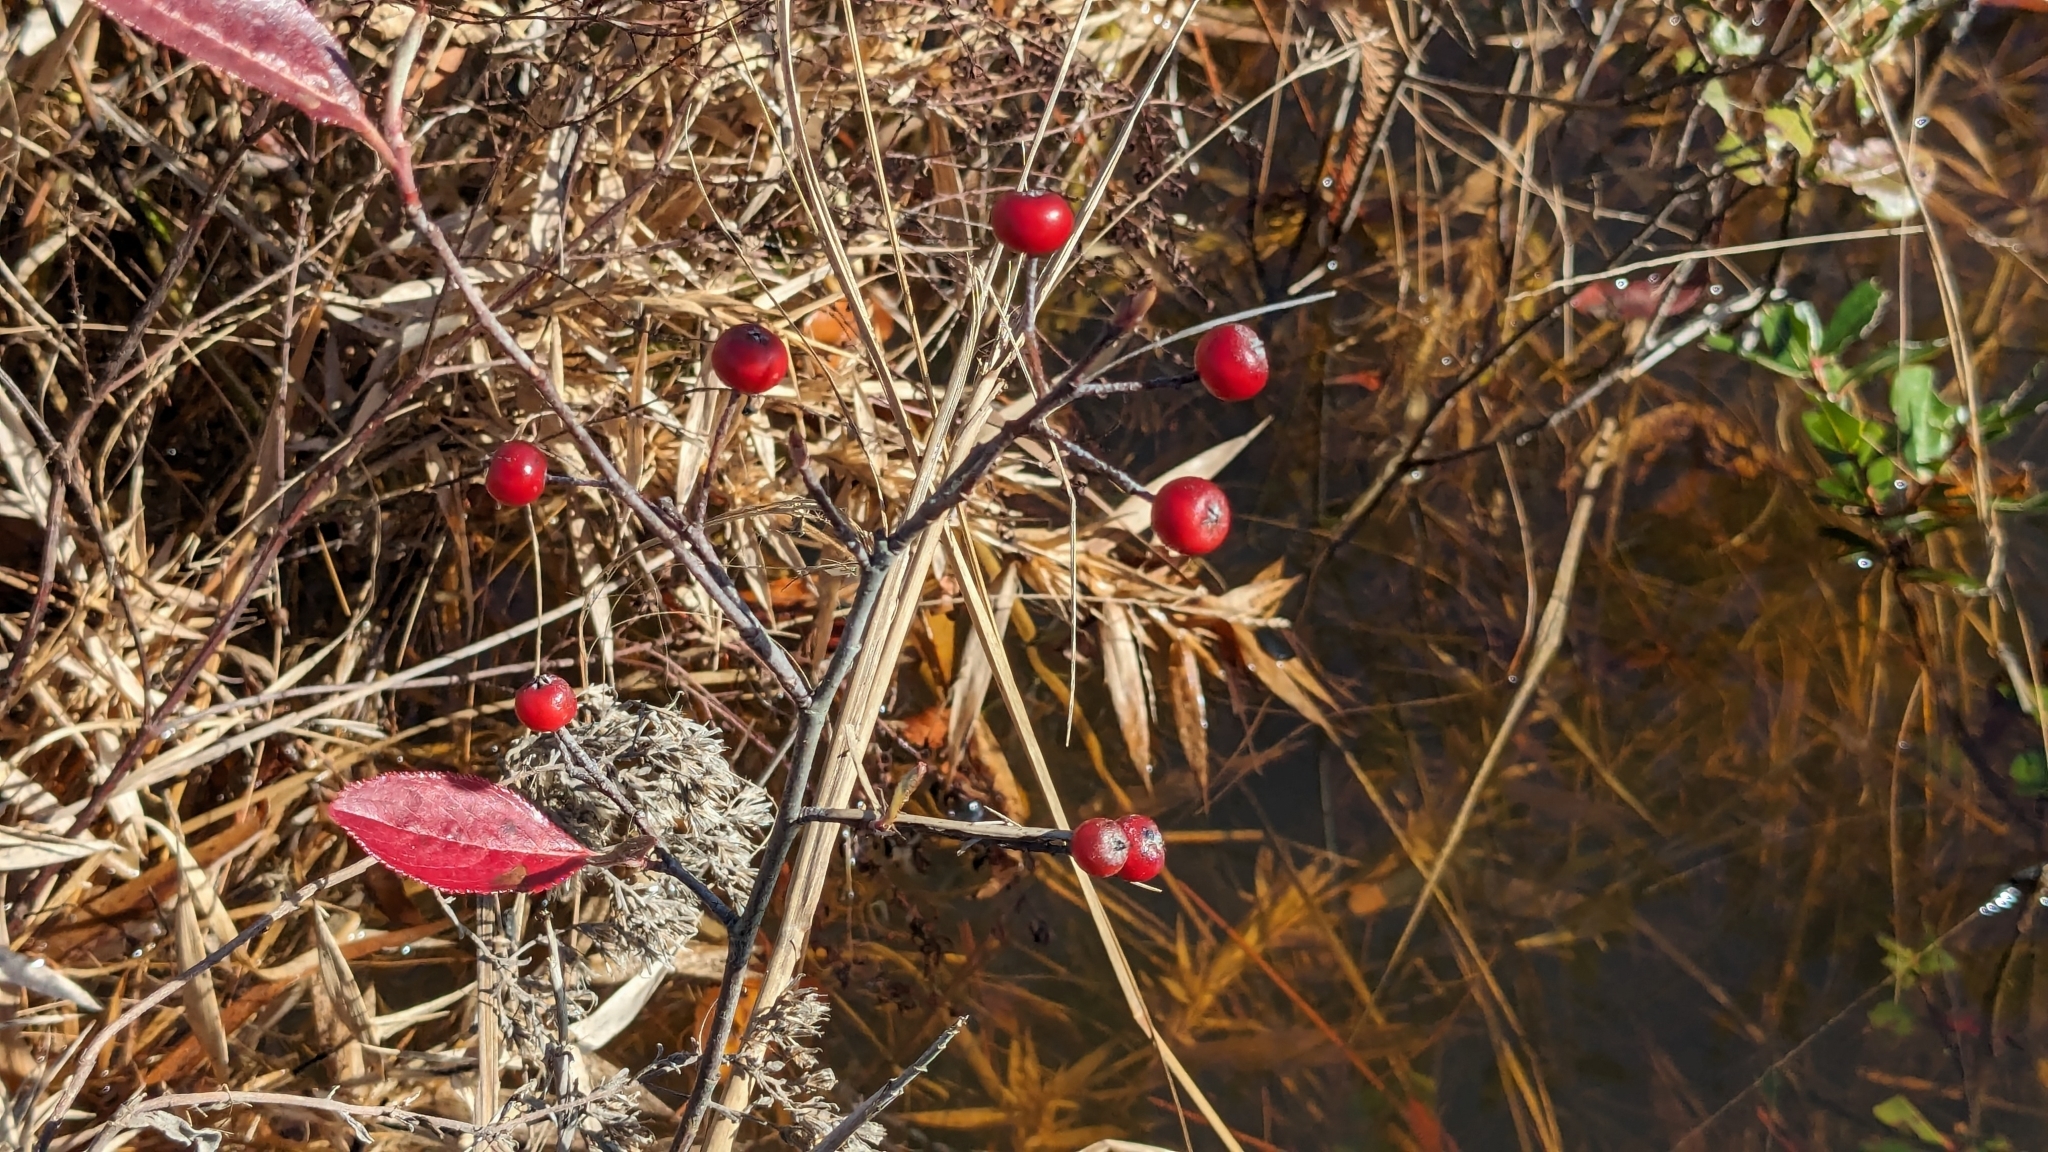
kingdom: Plantae
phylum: Tracheophyta
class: Magnoliopsida
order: Rosales
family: Rosaceae
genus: Aronia
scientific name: Aronia arbutifolia
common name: Red chokeberry
